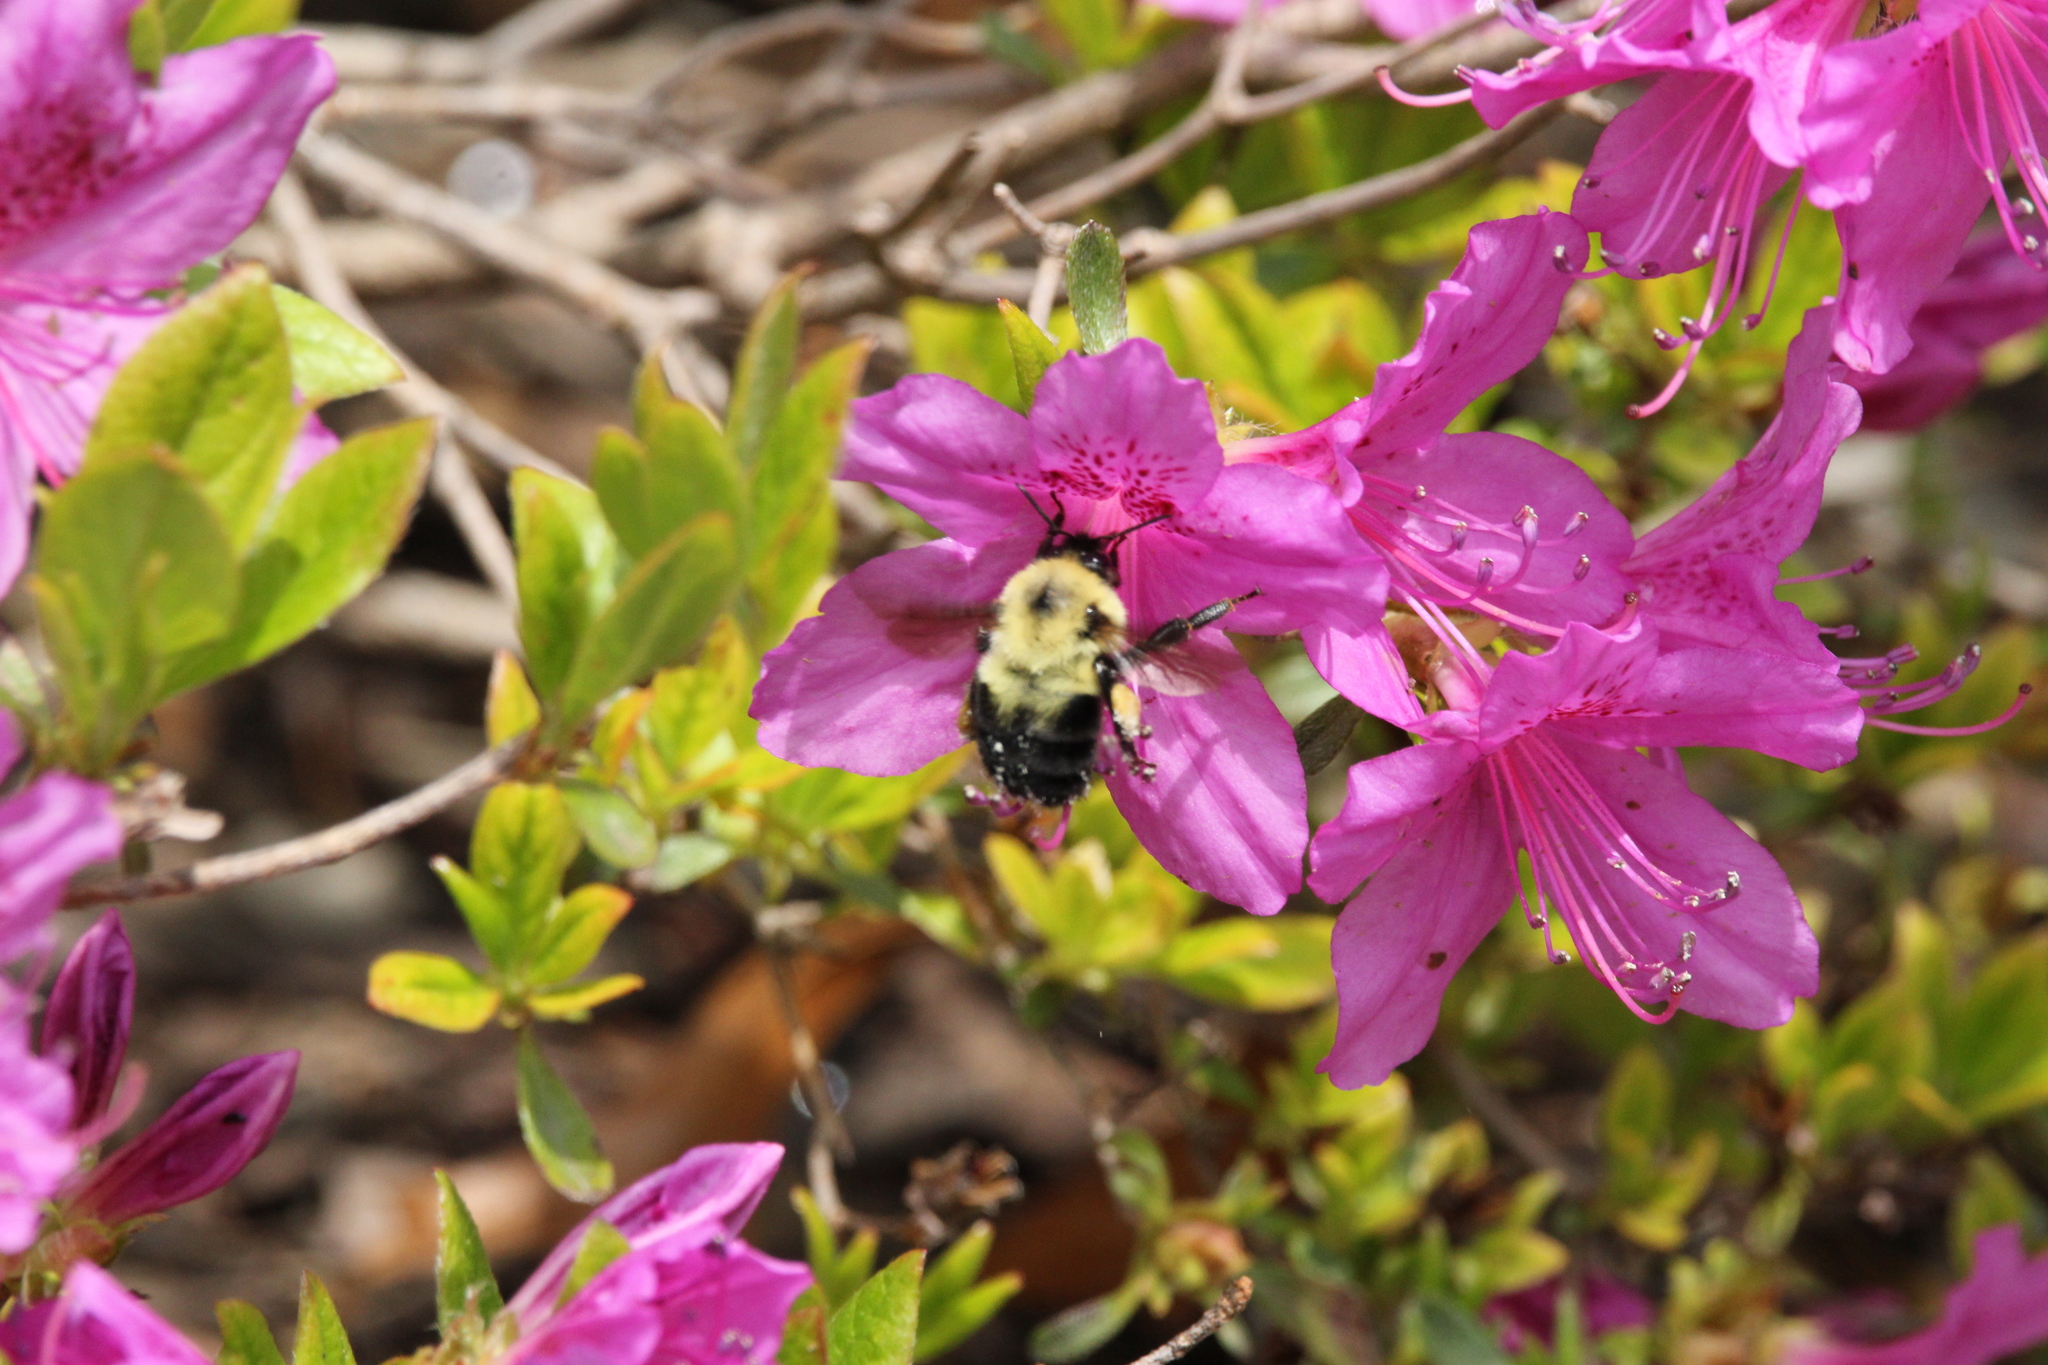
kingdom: Animalia
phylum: Arthropoda
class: Insecta
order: Hymenoptera
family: Apidae
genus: Bombus
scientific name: Bombus bimaculatus
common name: Two-spotted bumble bee
